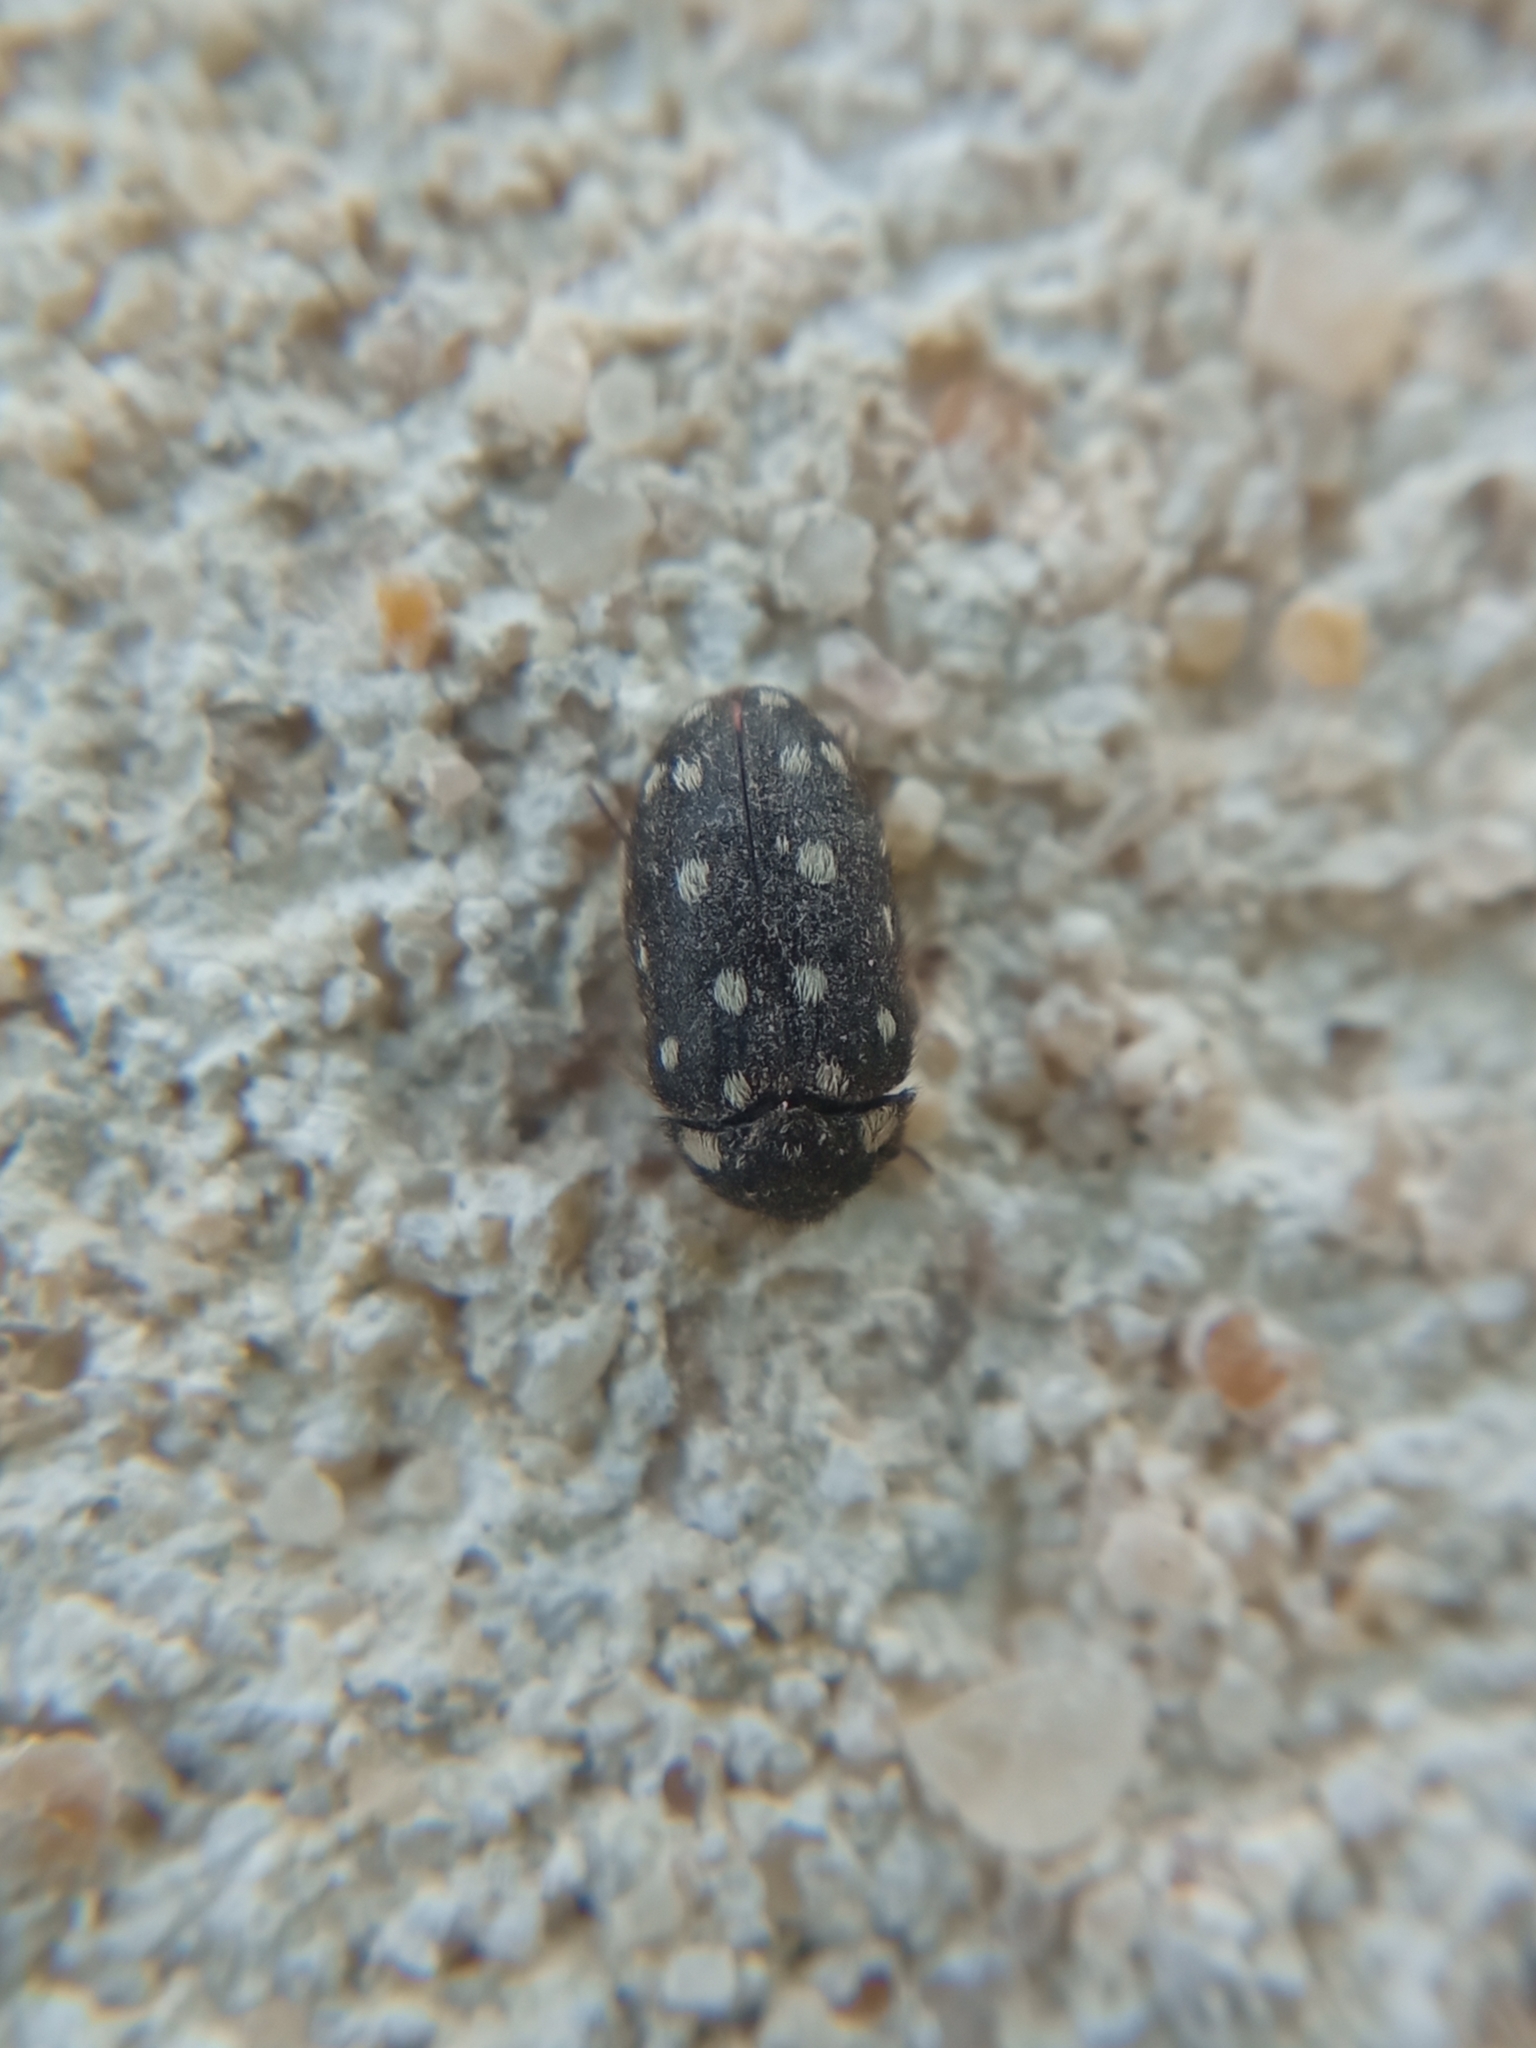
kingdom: Animalia
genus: Paranovelsis
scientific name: Paranovelsis
